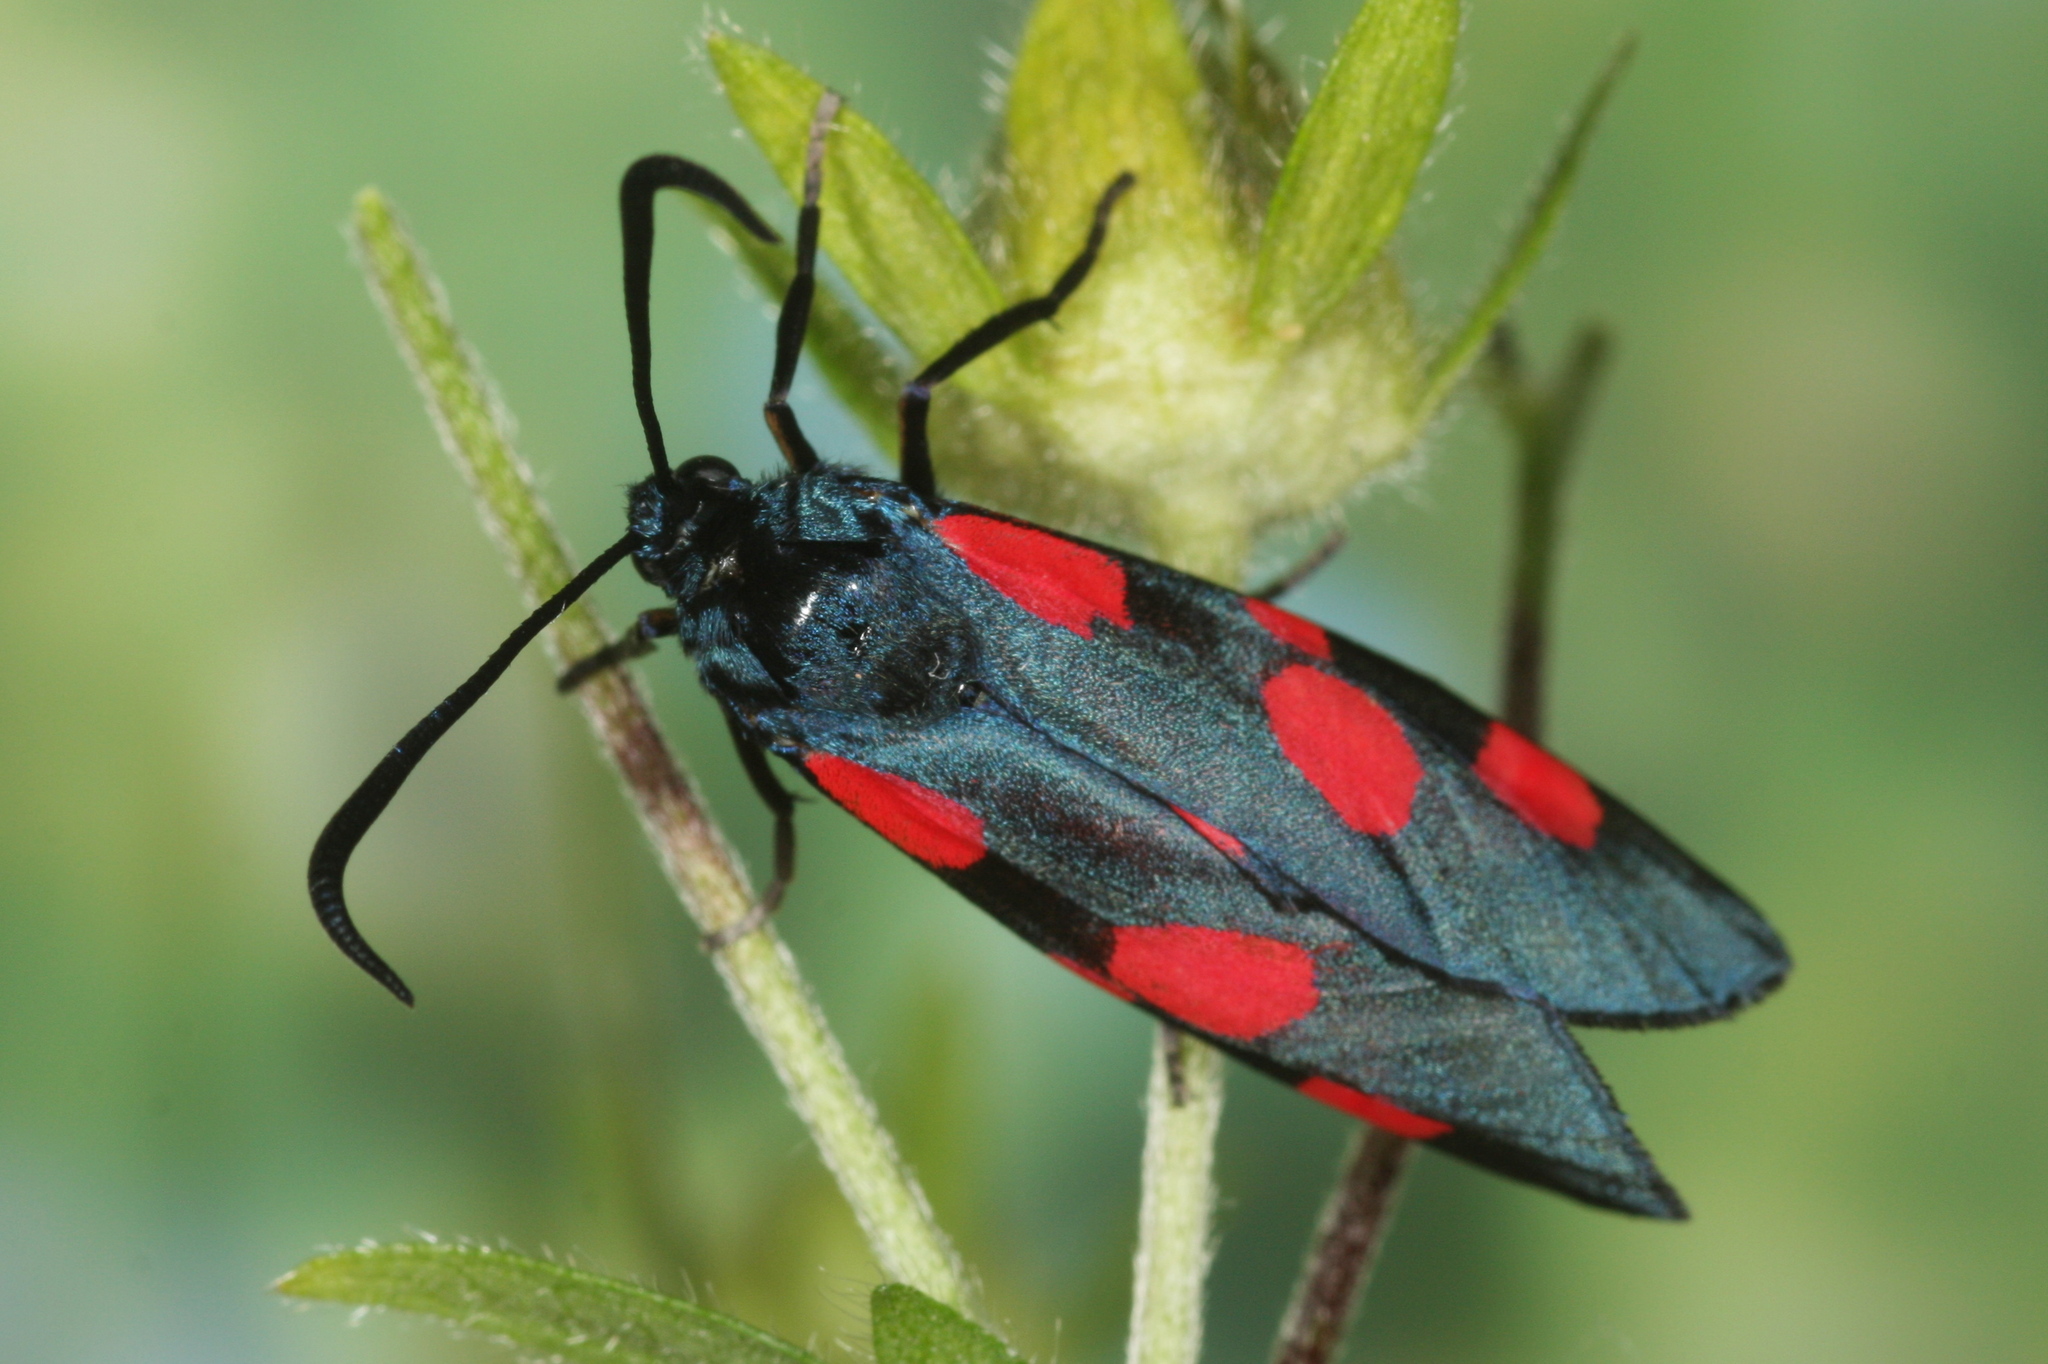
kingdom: Animalia
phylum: Arthropoda
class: Insecta
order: Lepidoptera
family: Zygaenidae
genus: Zygaena
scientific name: Zygaena viciae
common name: New forest burnet
